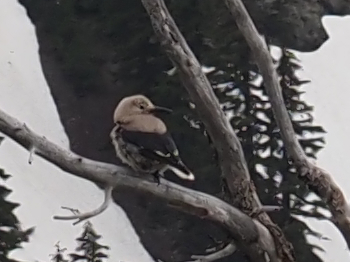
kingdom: Animalia
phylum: Chordata
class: Aves
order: Passeriformes
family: Corvidae
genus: Nucifraga
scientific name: Nucifraga columbiana
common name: Clark's nutcracker
